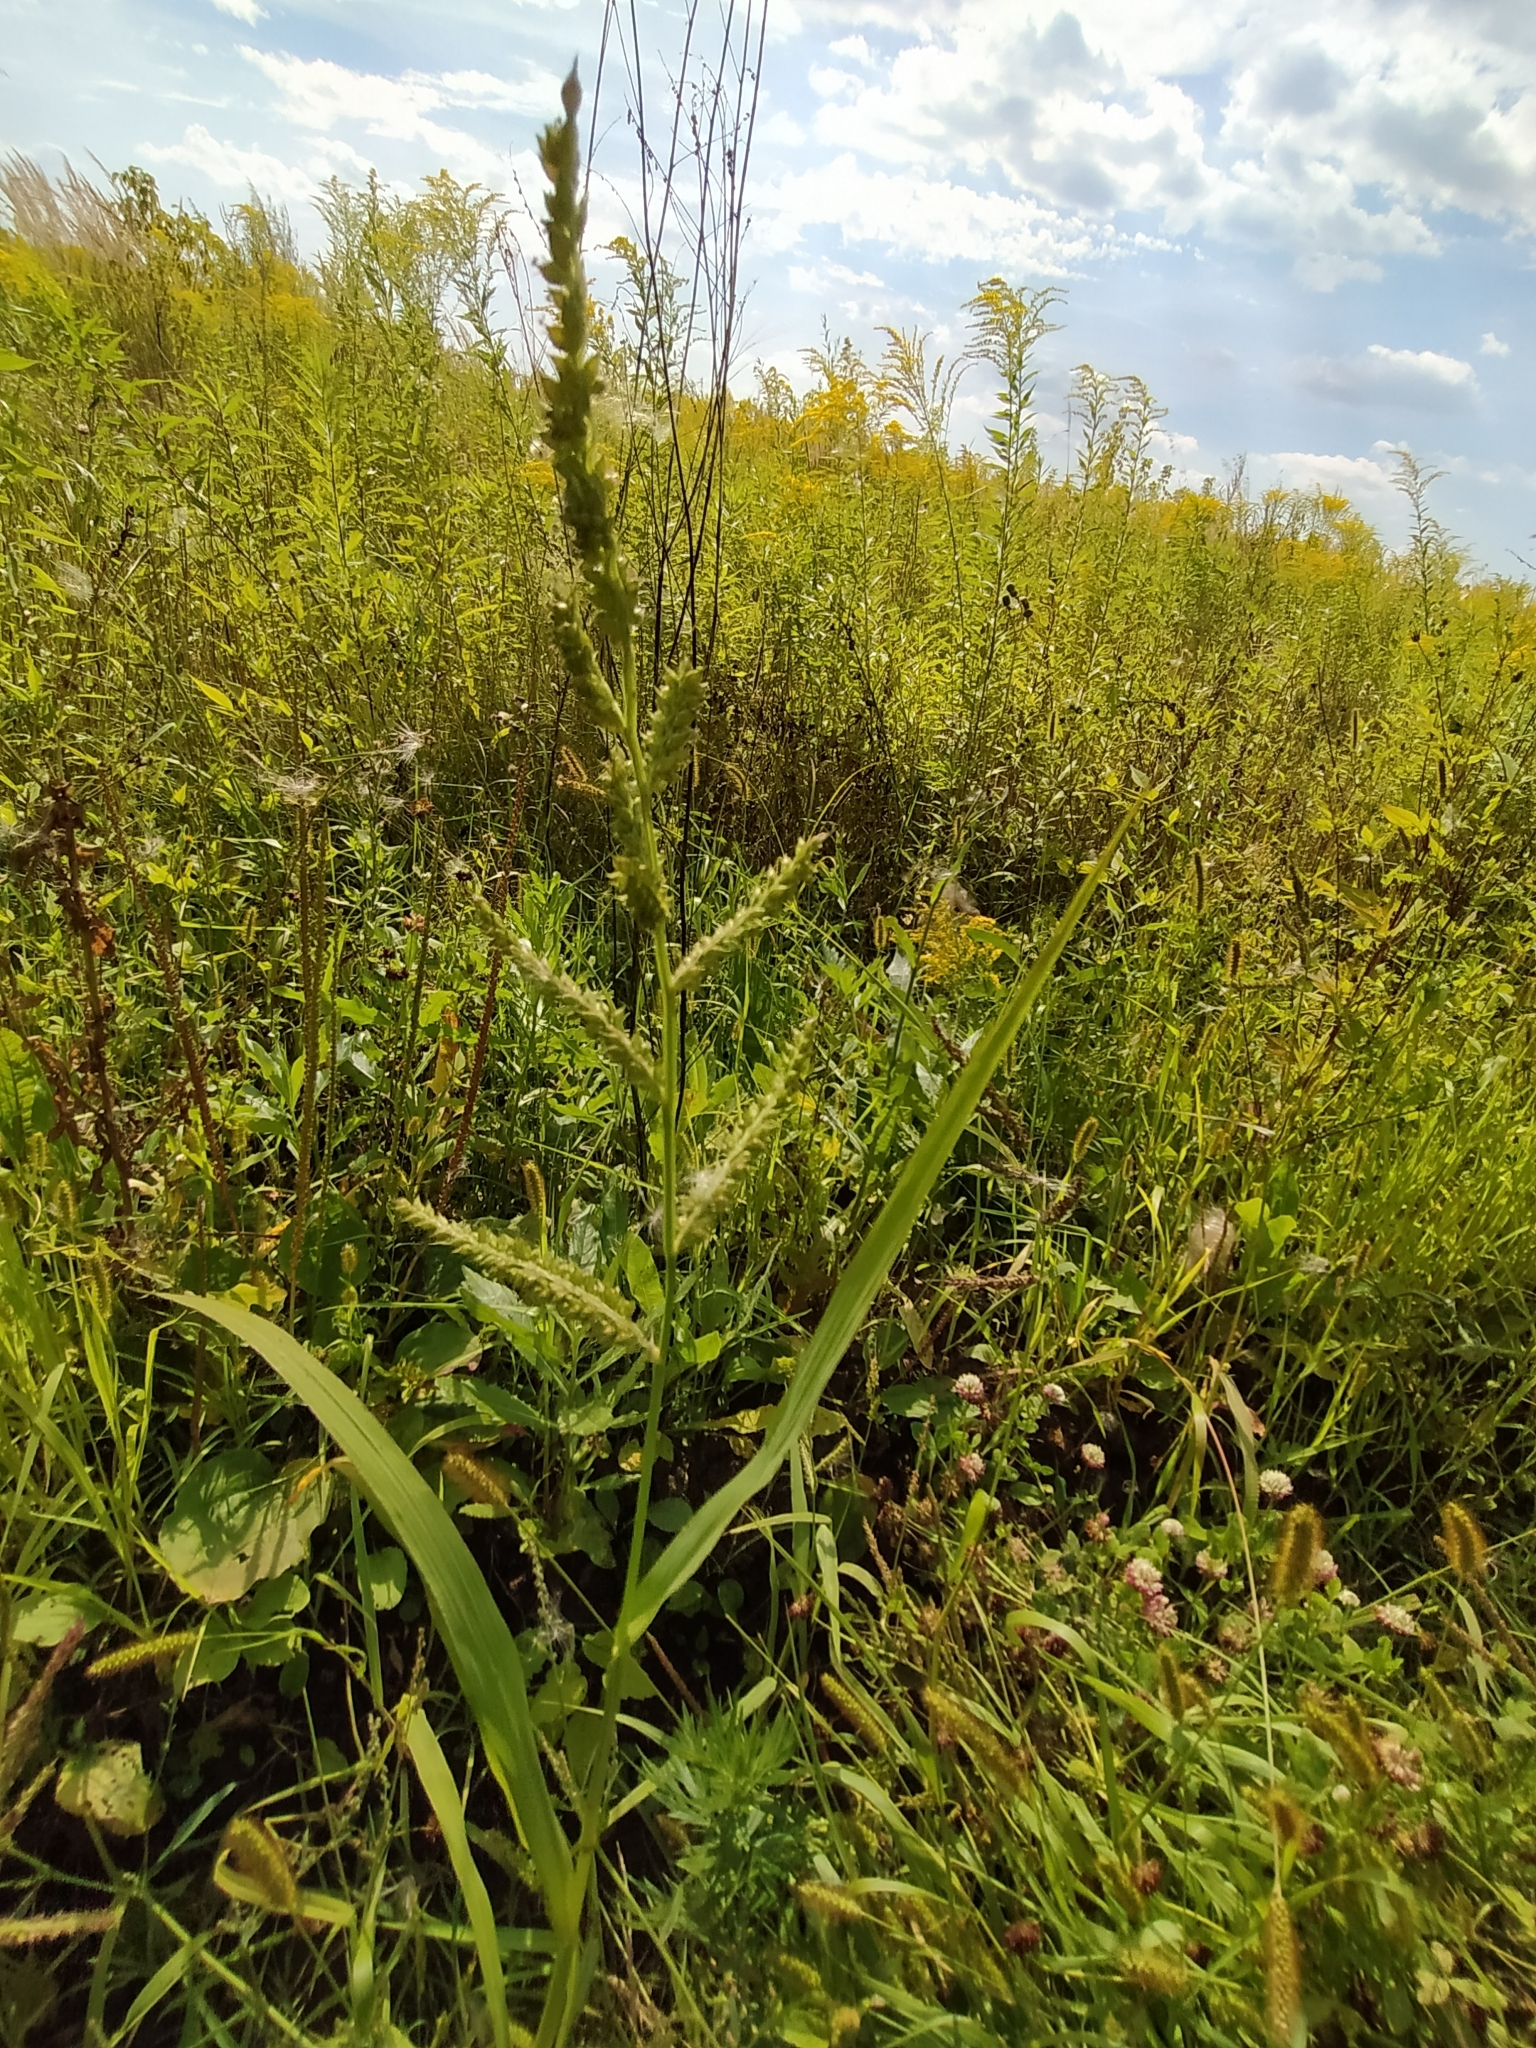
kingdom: Plantae
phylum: Tracheophyta
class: Liliopsida
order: Poales
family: Poaceae
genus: Echinochloa
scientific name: Echinochloa crus-galli
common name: Cockspur
